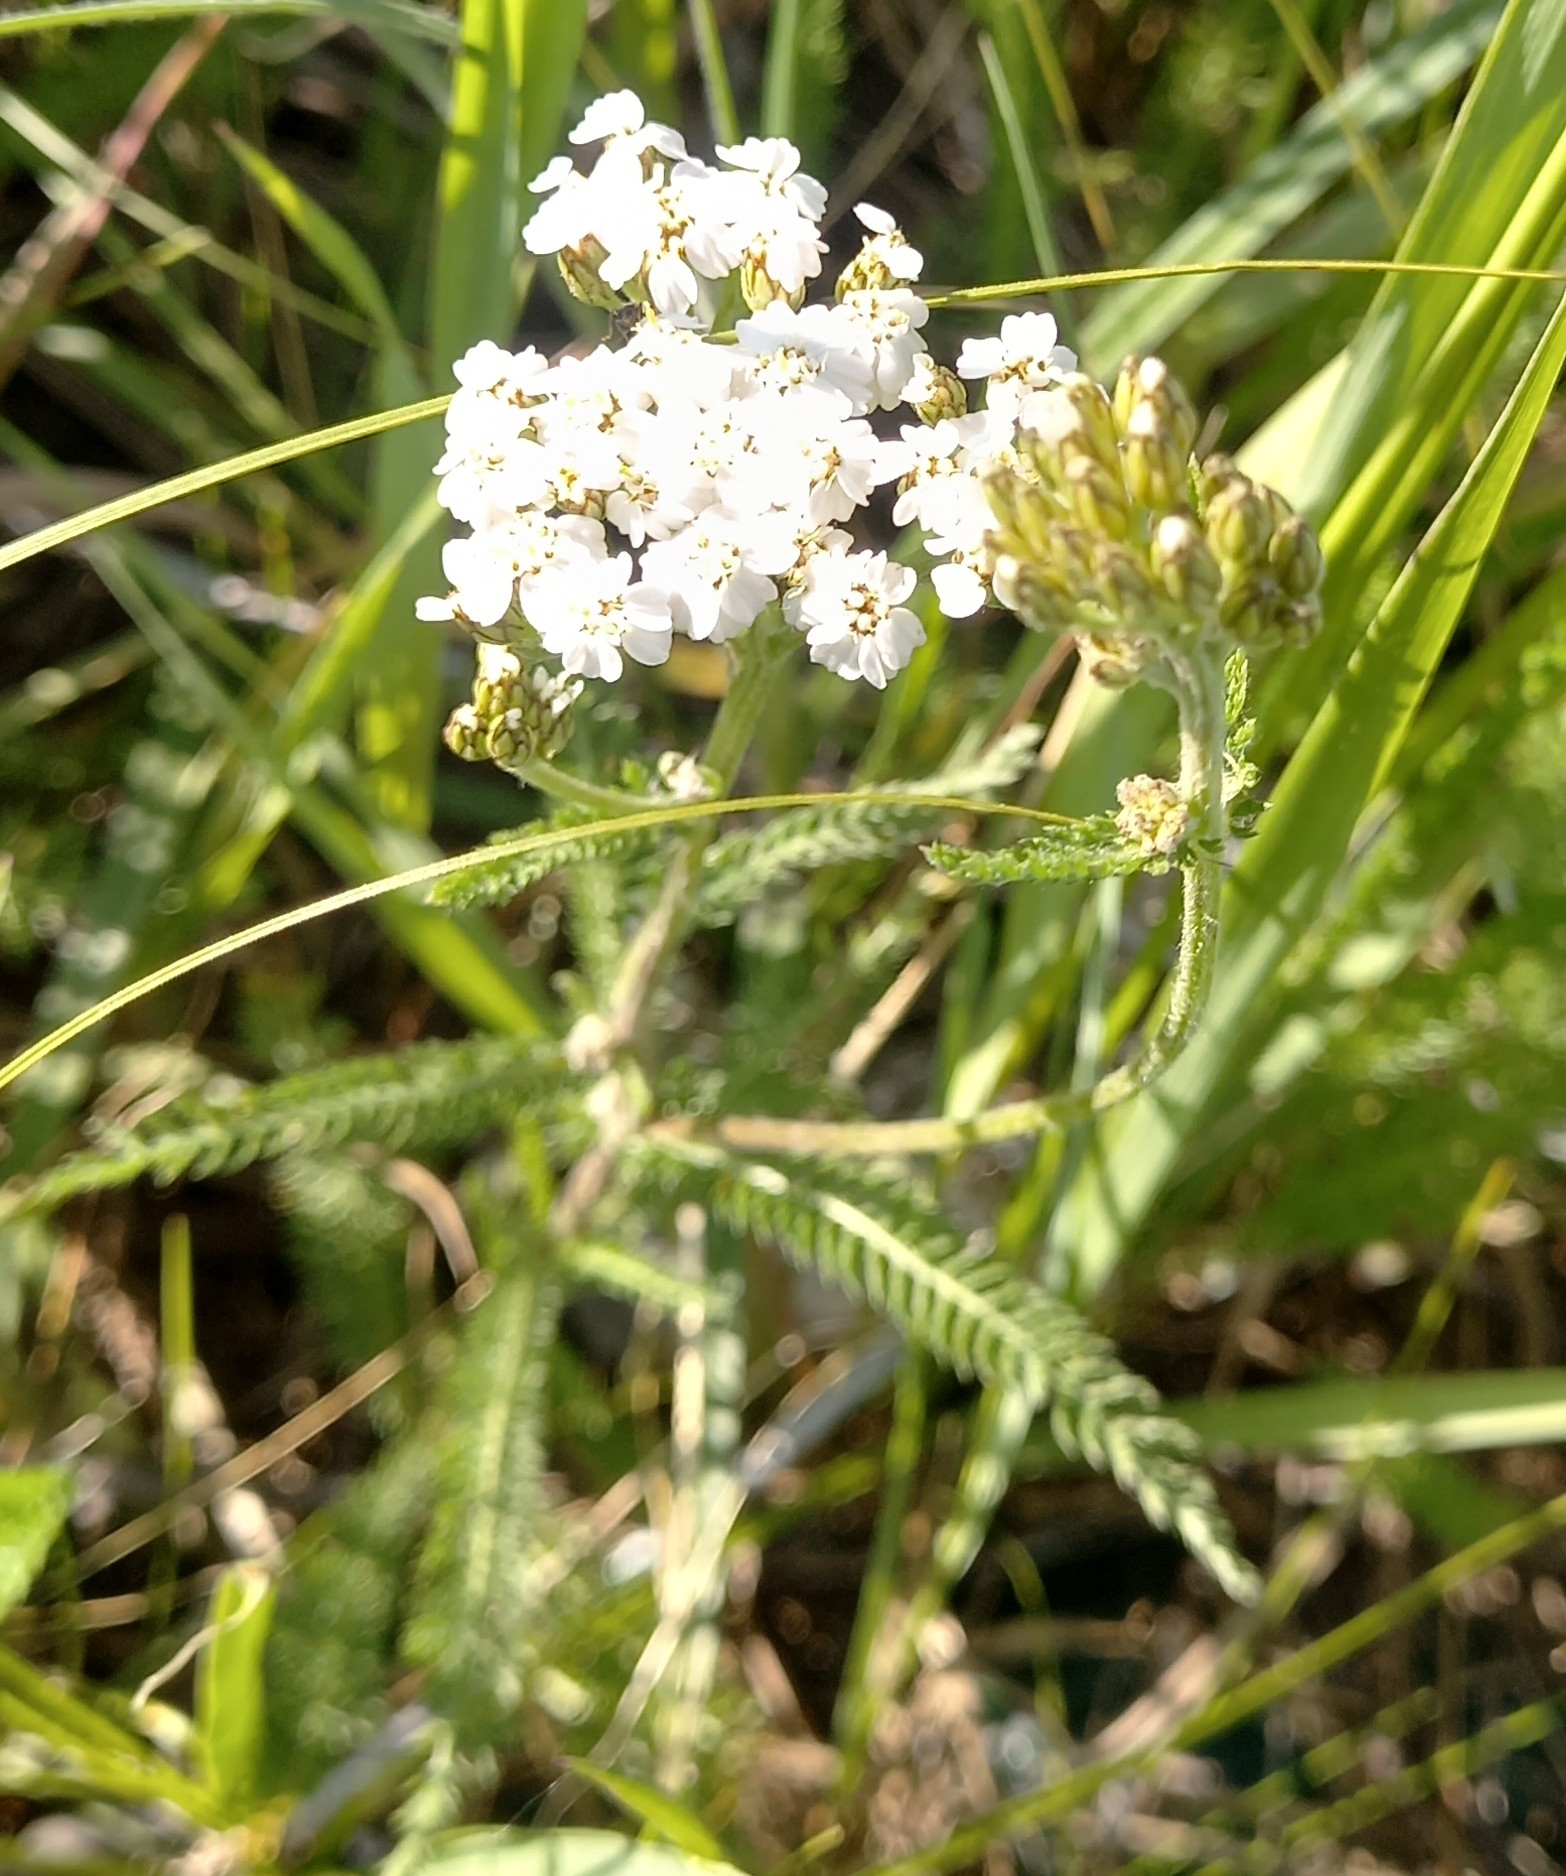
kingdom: Plantae
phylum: Tracheophyta
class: Magnoliopsida
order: Asterales
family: Asteraceae
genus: Achillea
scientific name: Achillea millefolium
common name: Yarrow
